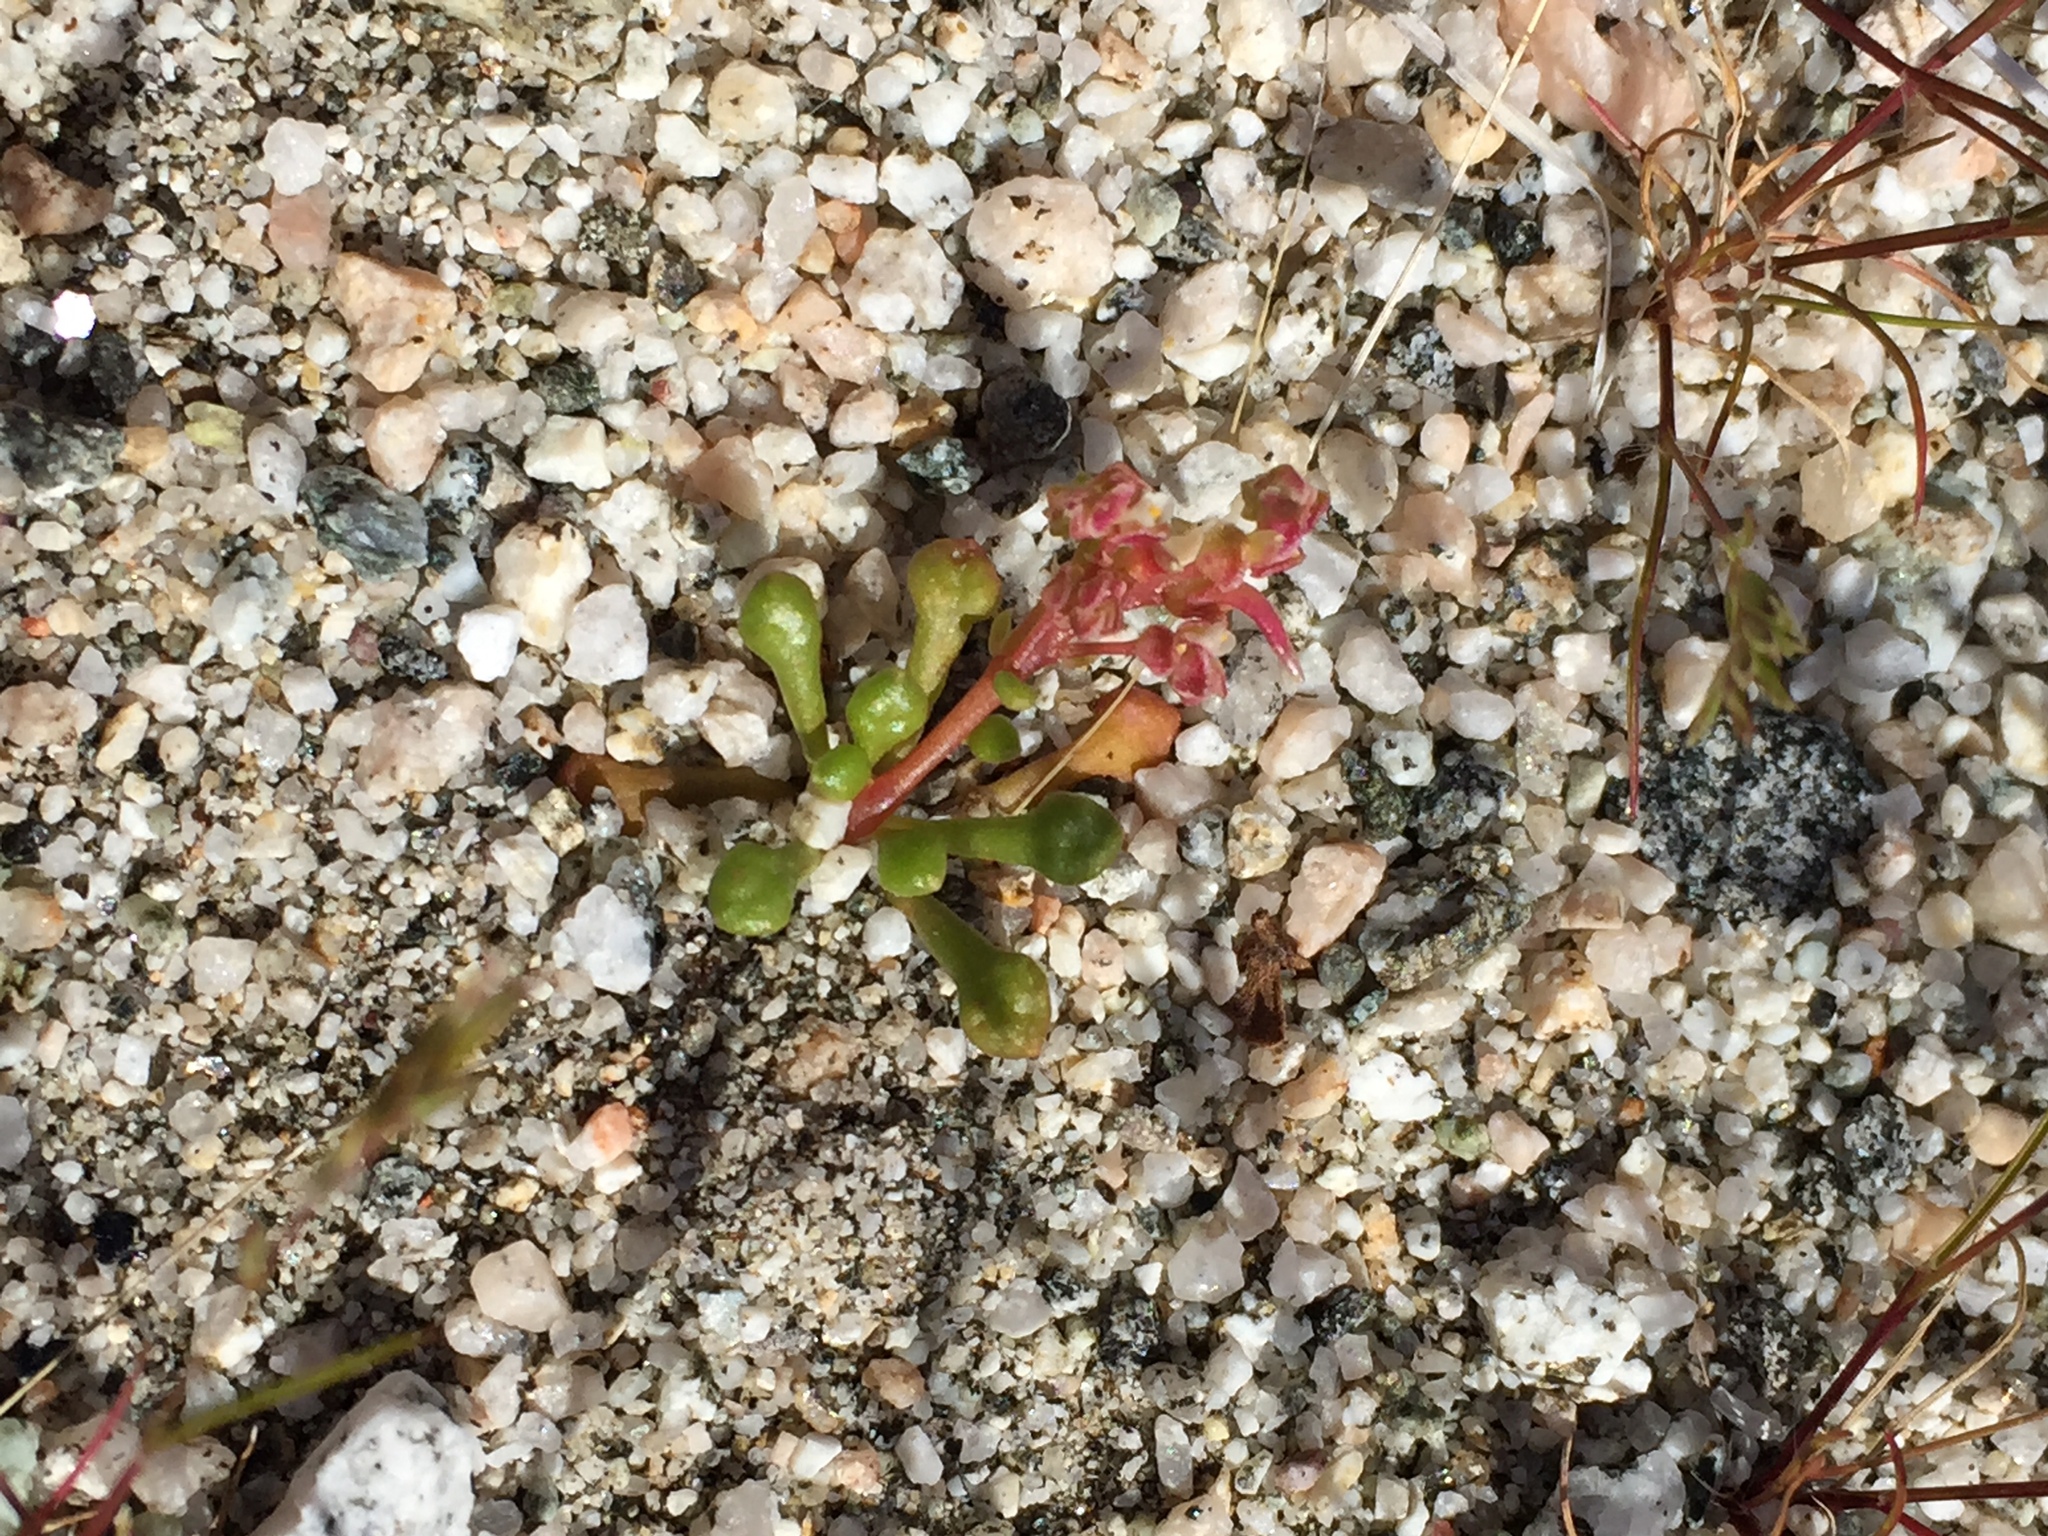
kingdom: Plantae
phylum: Tracheophyta
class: Magnoliopsida
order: Caryophyllales
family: Montiaceae
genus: Calyptridium
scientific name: Calyptridium monandrum
